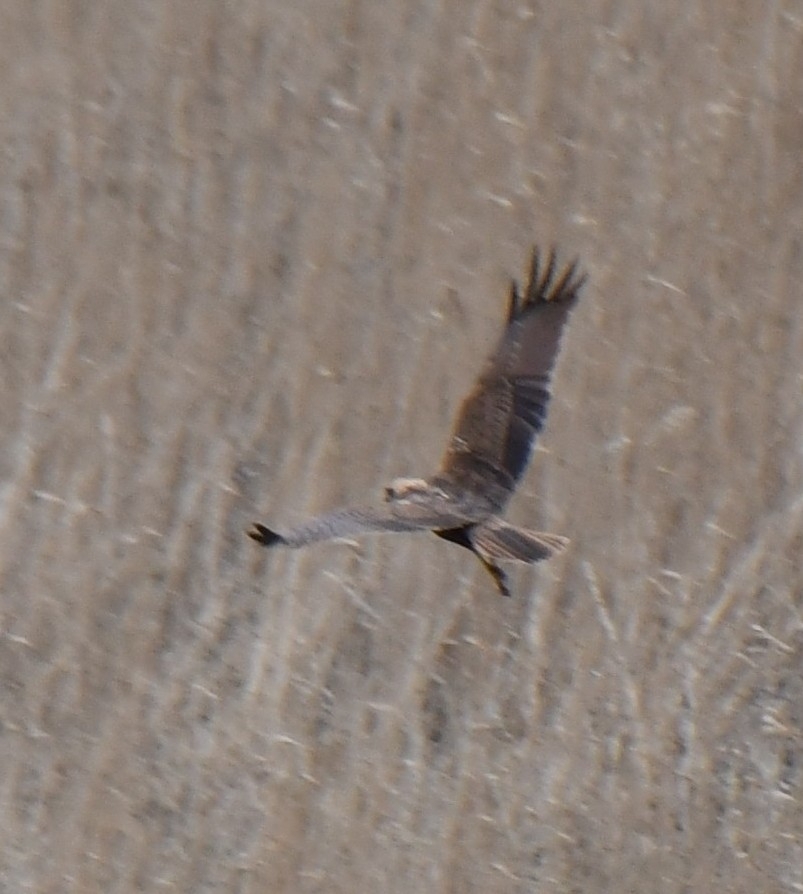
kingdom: Animalia
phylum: Chordata
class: Aves
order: Accipitriformes
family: Accipitridae
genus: Circus
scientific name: Circus aeruginosus
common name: Western marsh harrier
